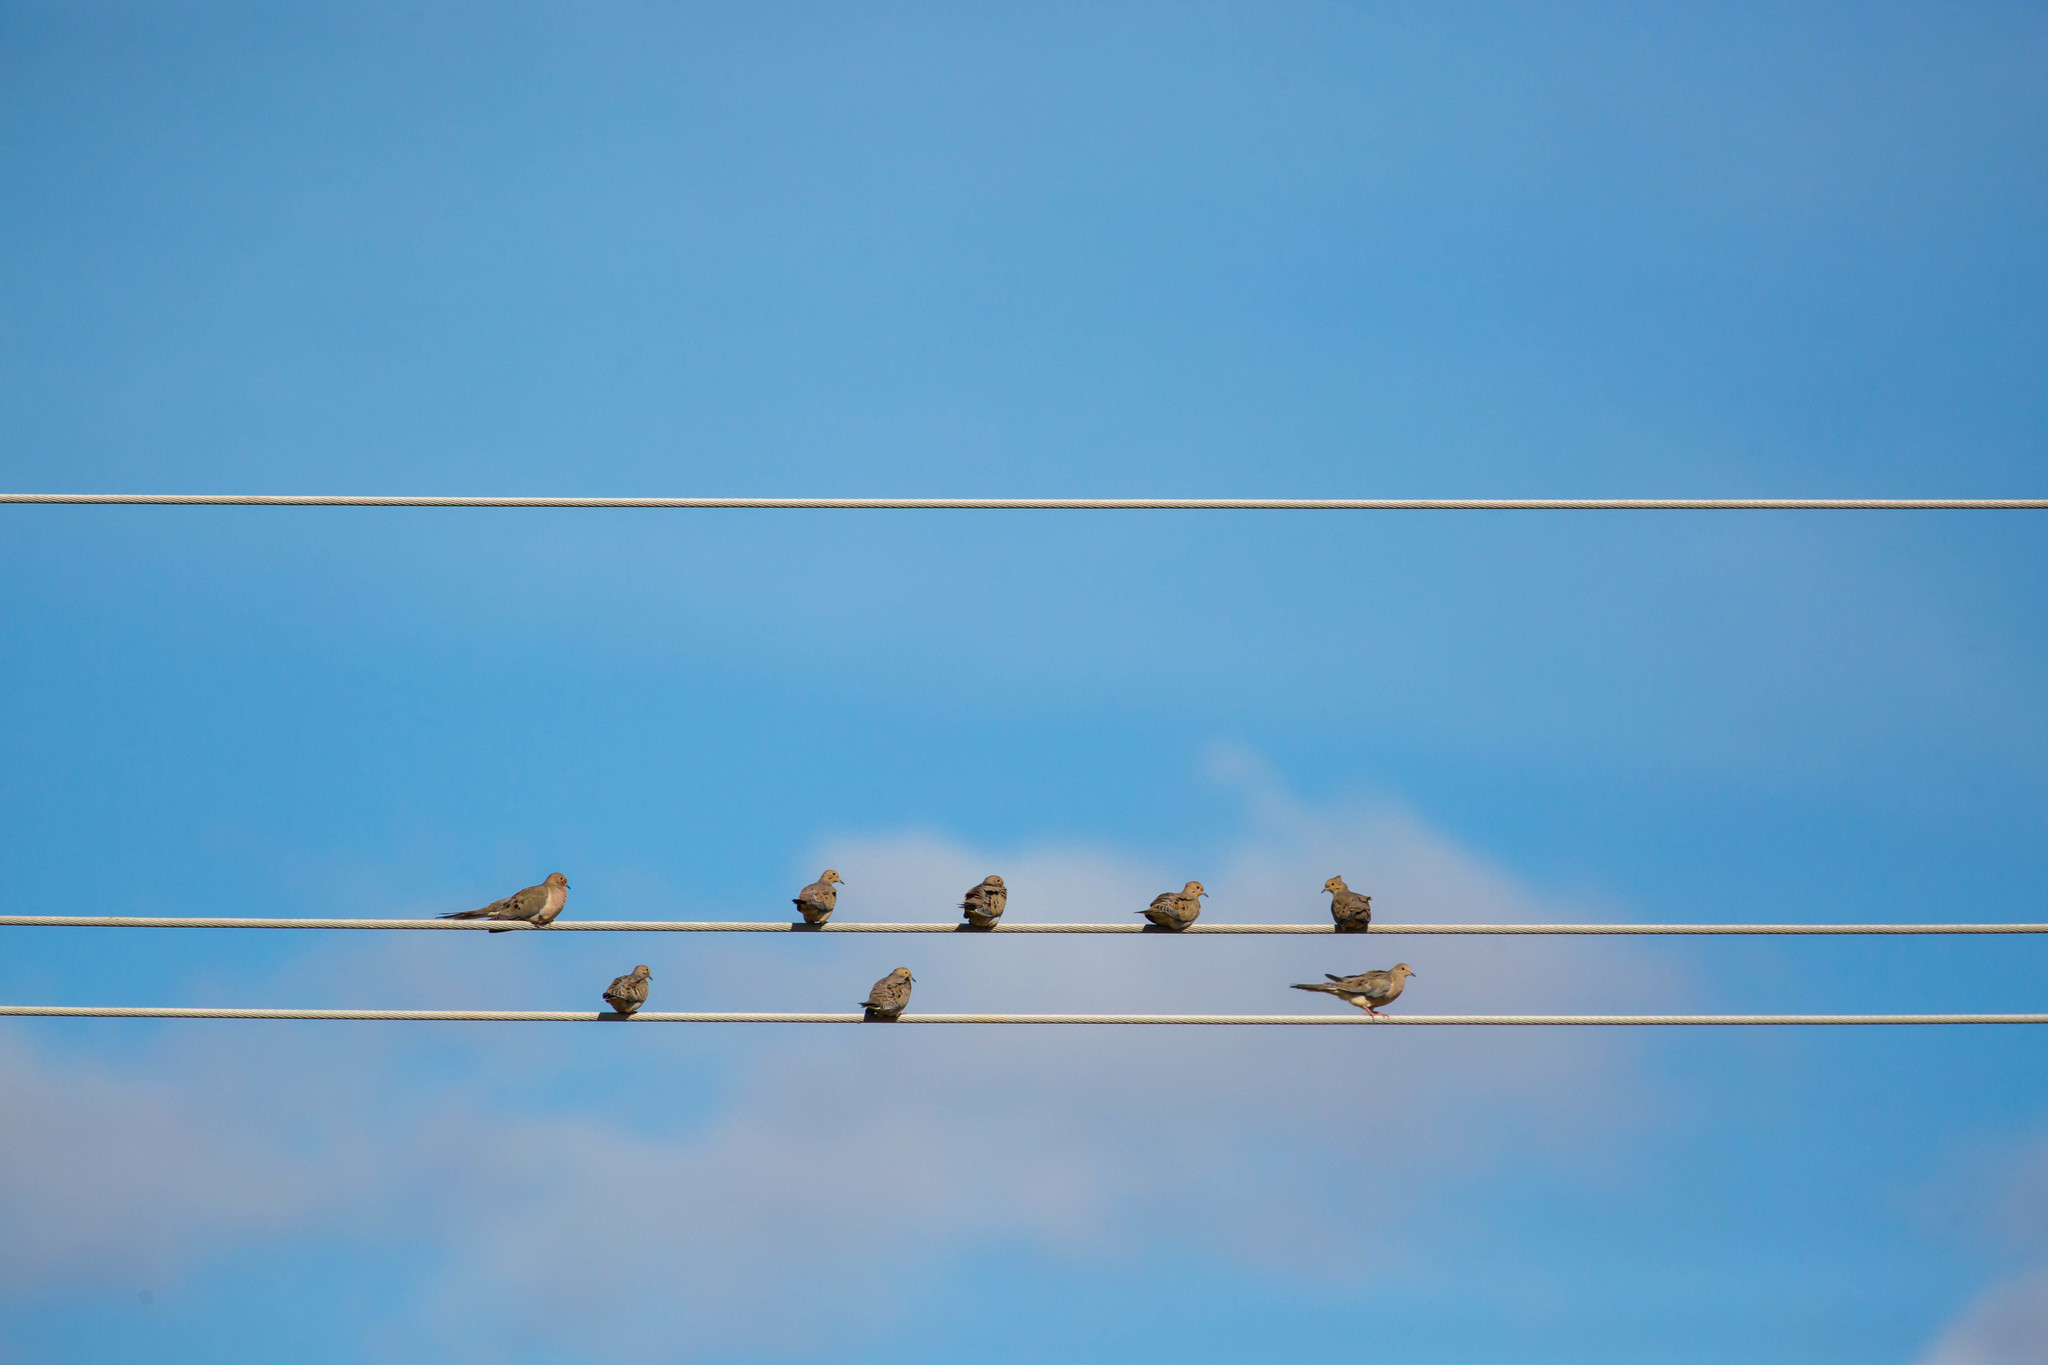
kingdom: Animalia
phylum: Chordata
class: Aves
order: Columbiformes
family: Columbidae
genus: Zenaida
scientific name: Zenaida macroura
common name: Mourning dove
